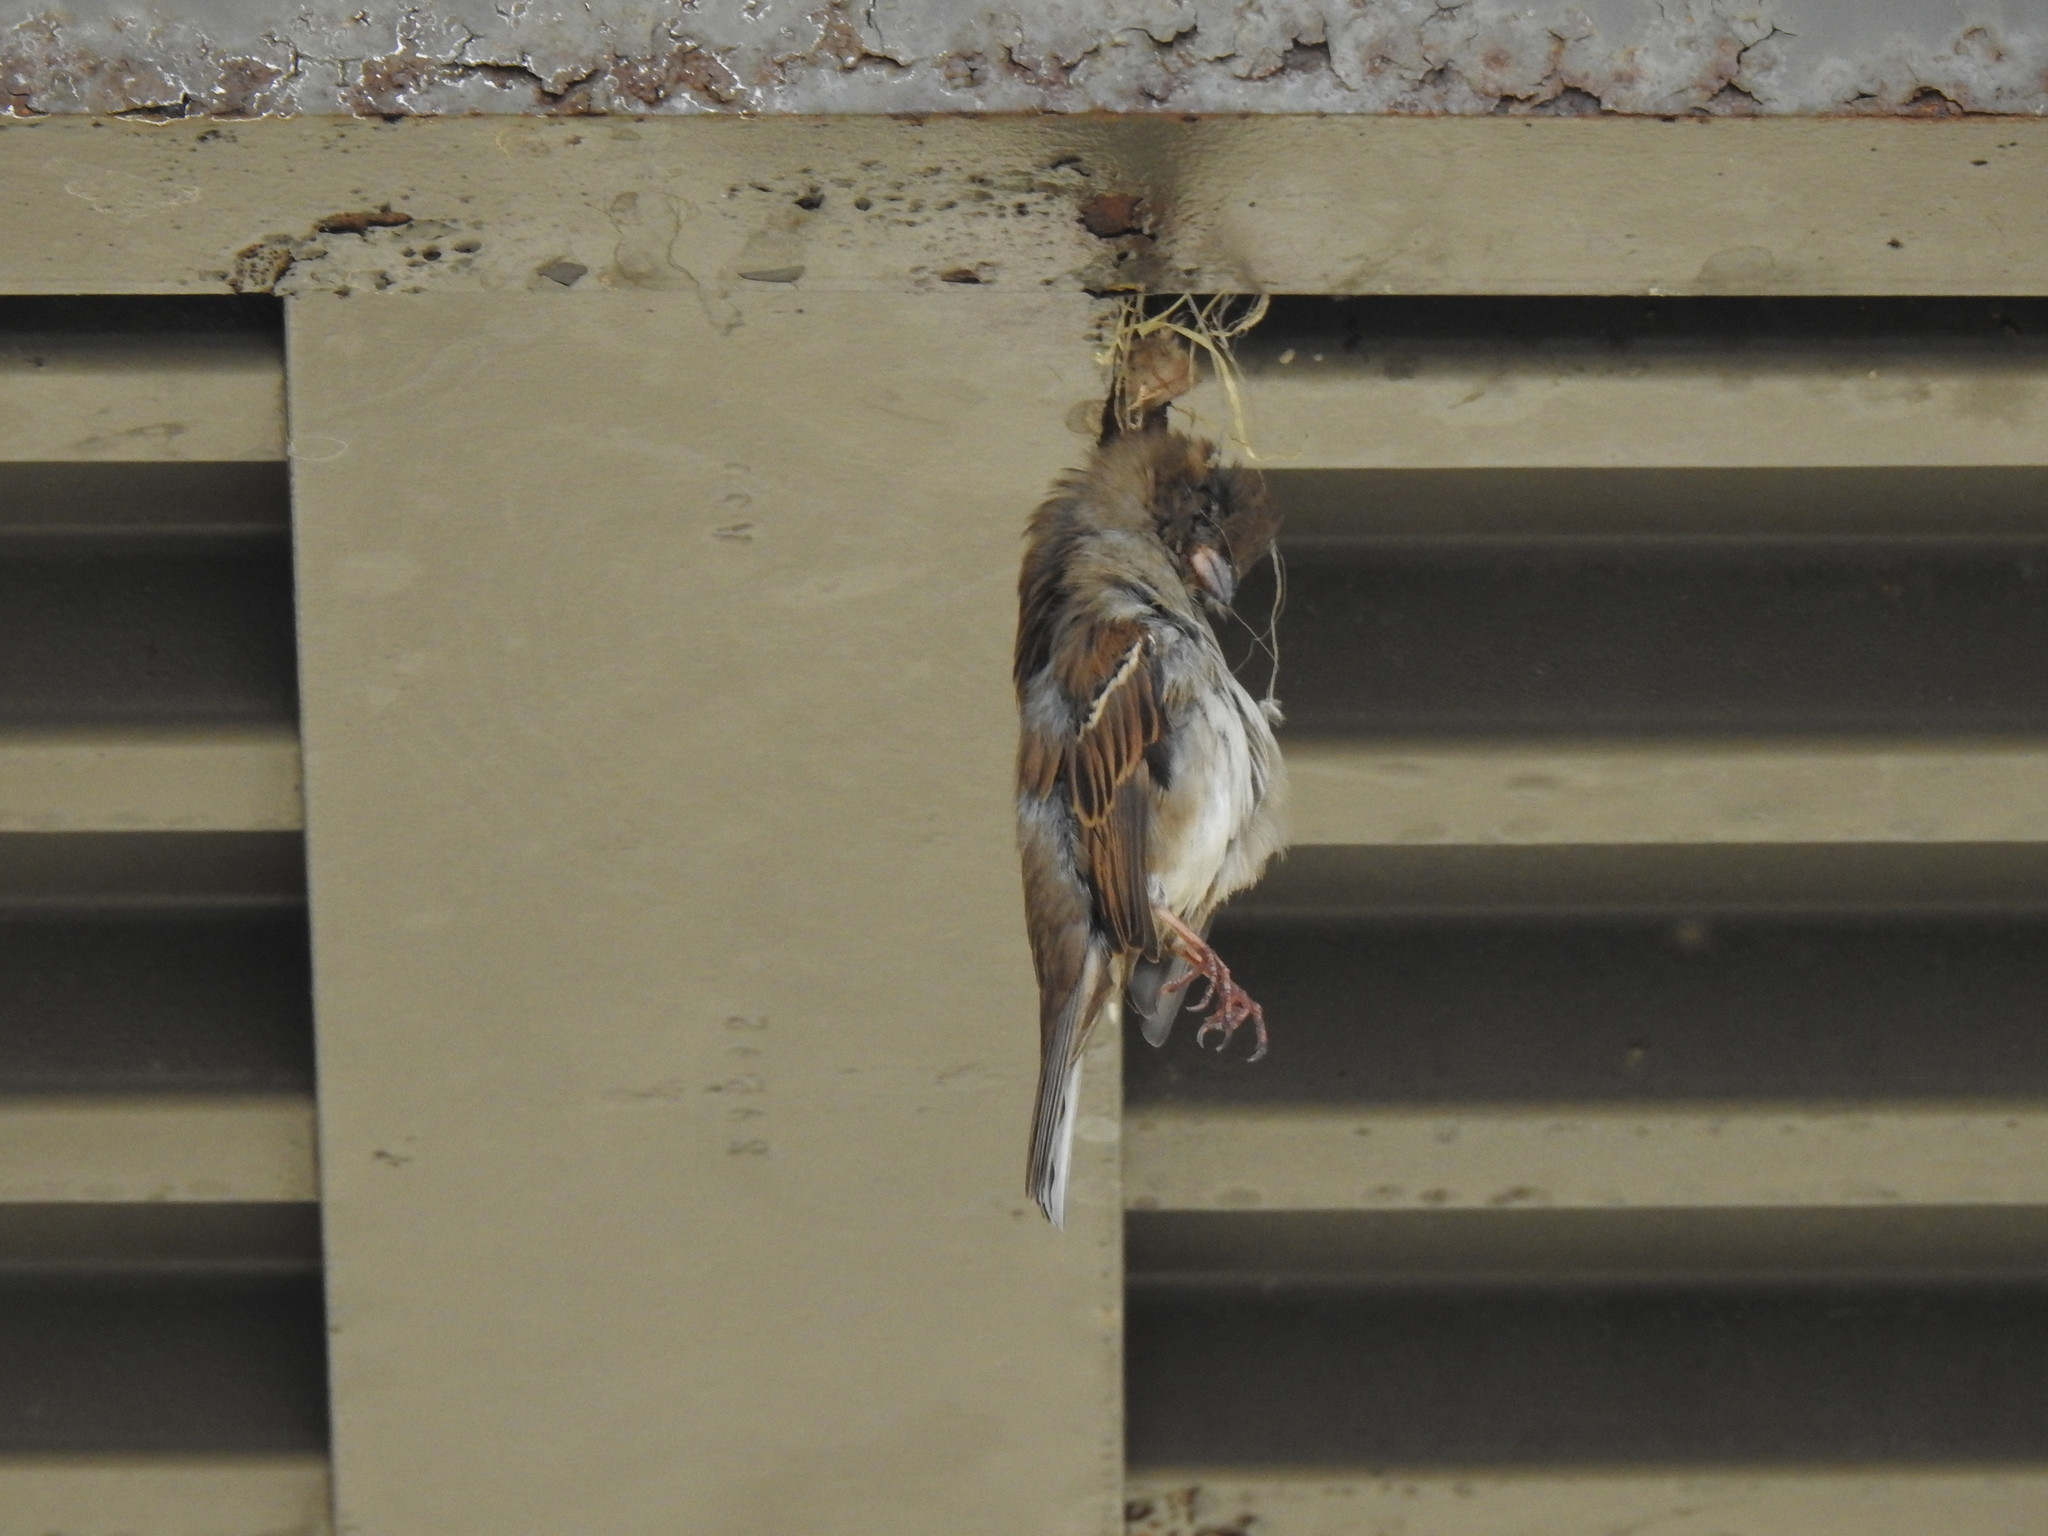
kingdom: Animalia
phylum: Chordata
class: Aves
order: Passeriformes
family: Passeridae
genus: Passer
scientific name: Passer domesticus
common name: House sparrow
